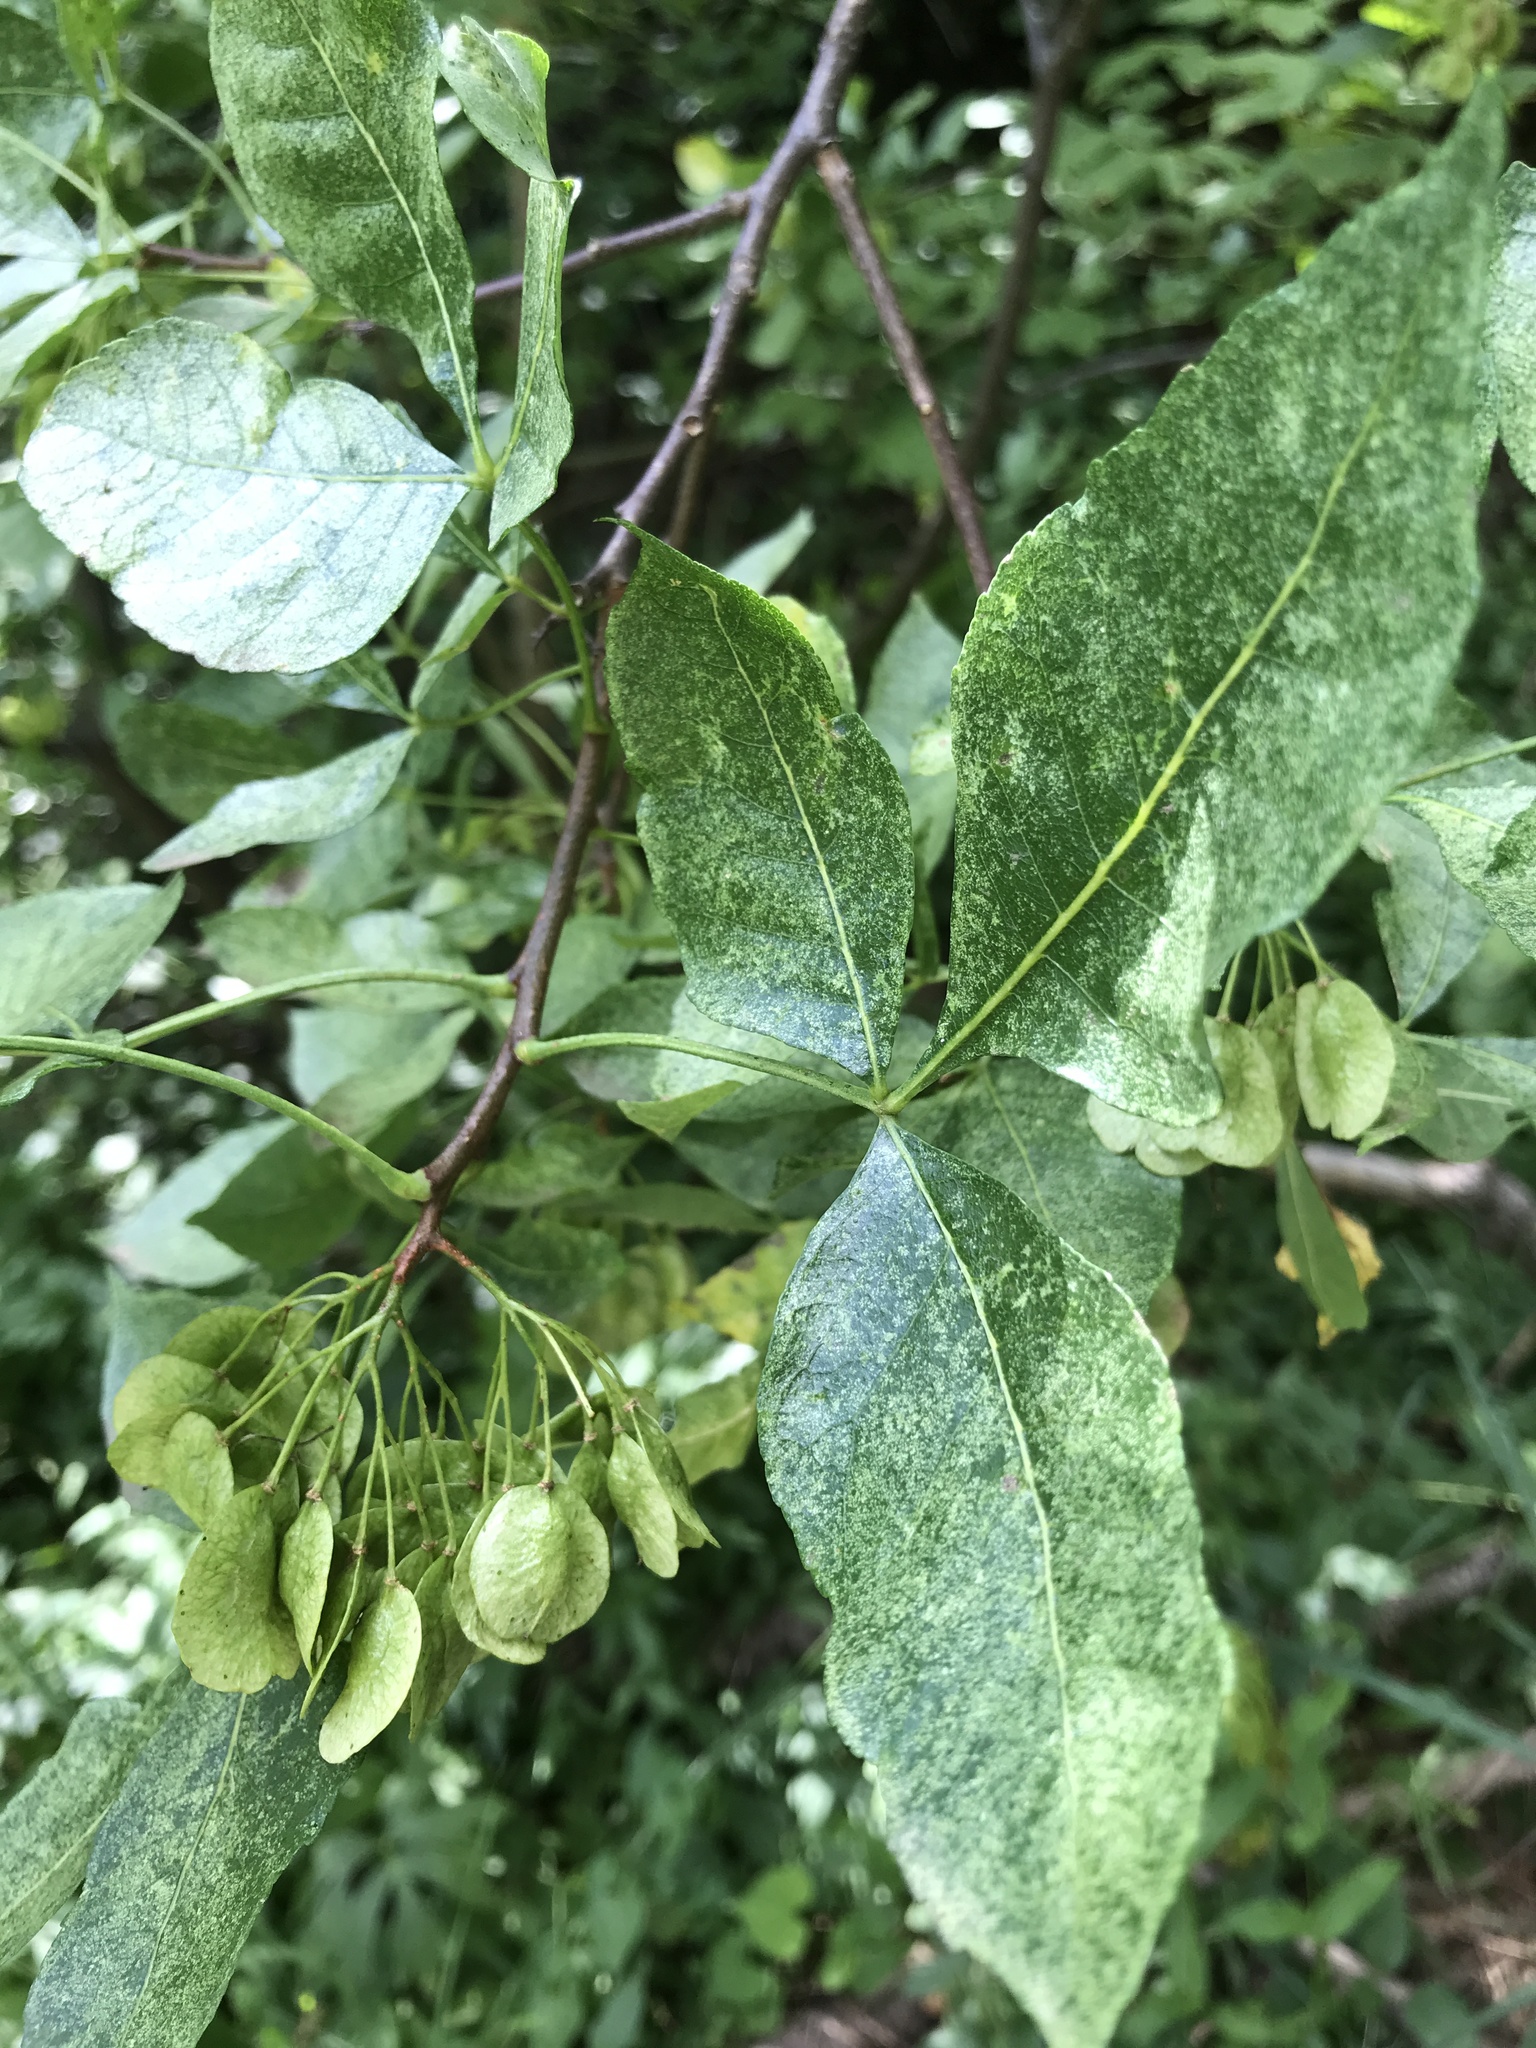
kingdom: Plantae
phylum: Tracheophyta
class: Magnoliopsida
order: Sapindales
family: Rutaceae
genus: Ptelea
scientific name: Ptelea trifoliata
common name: Common hop-tree
